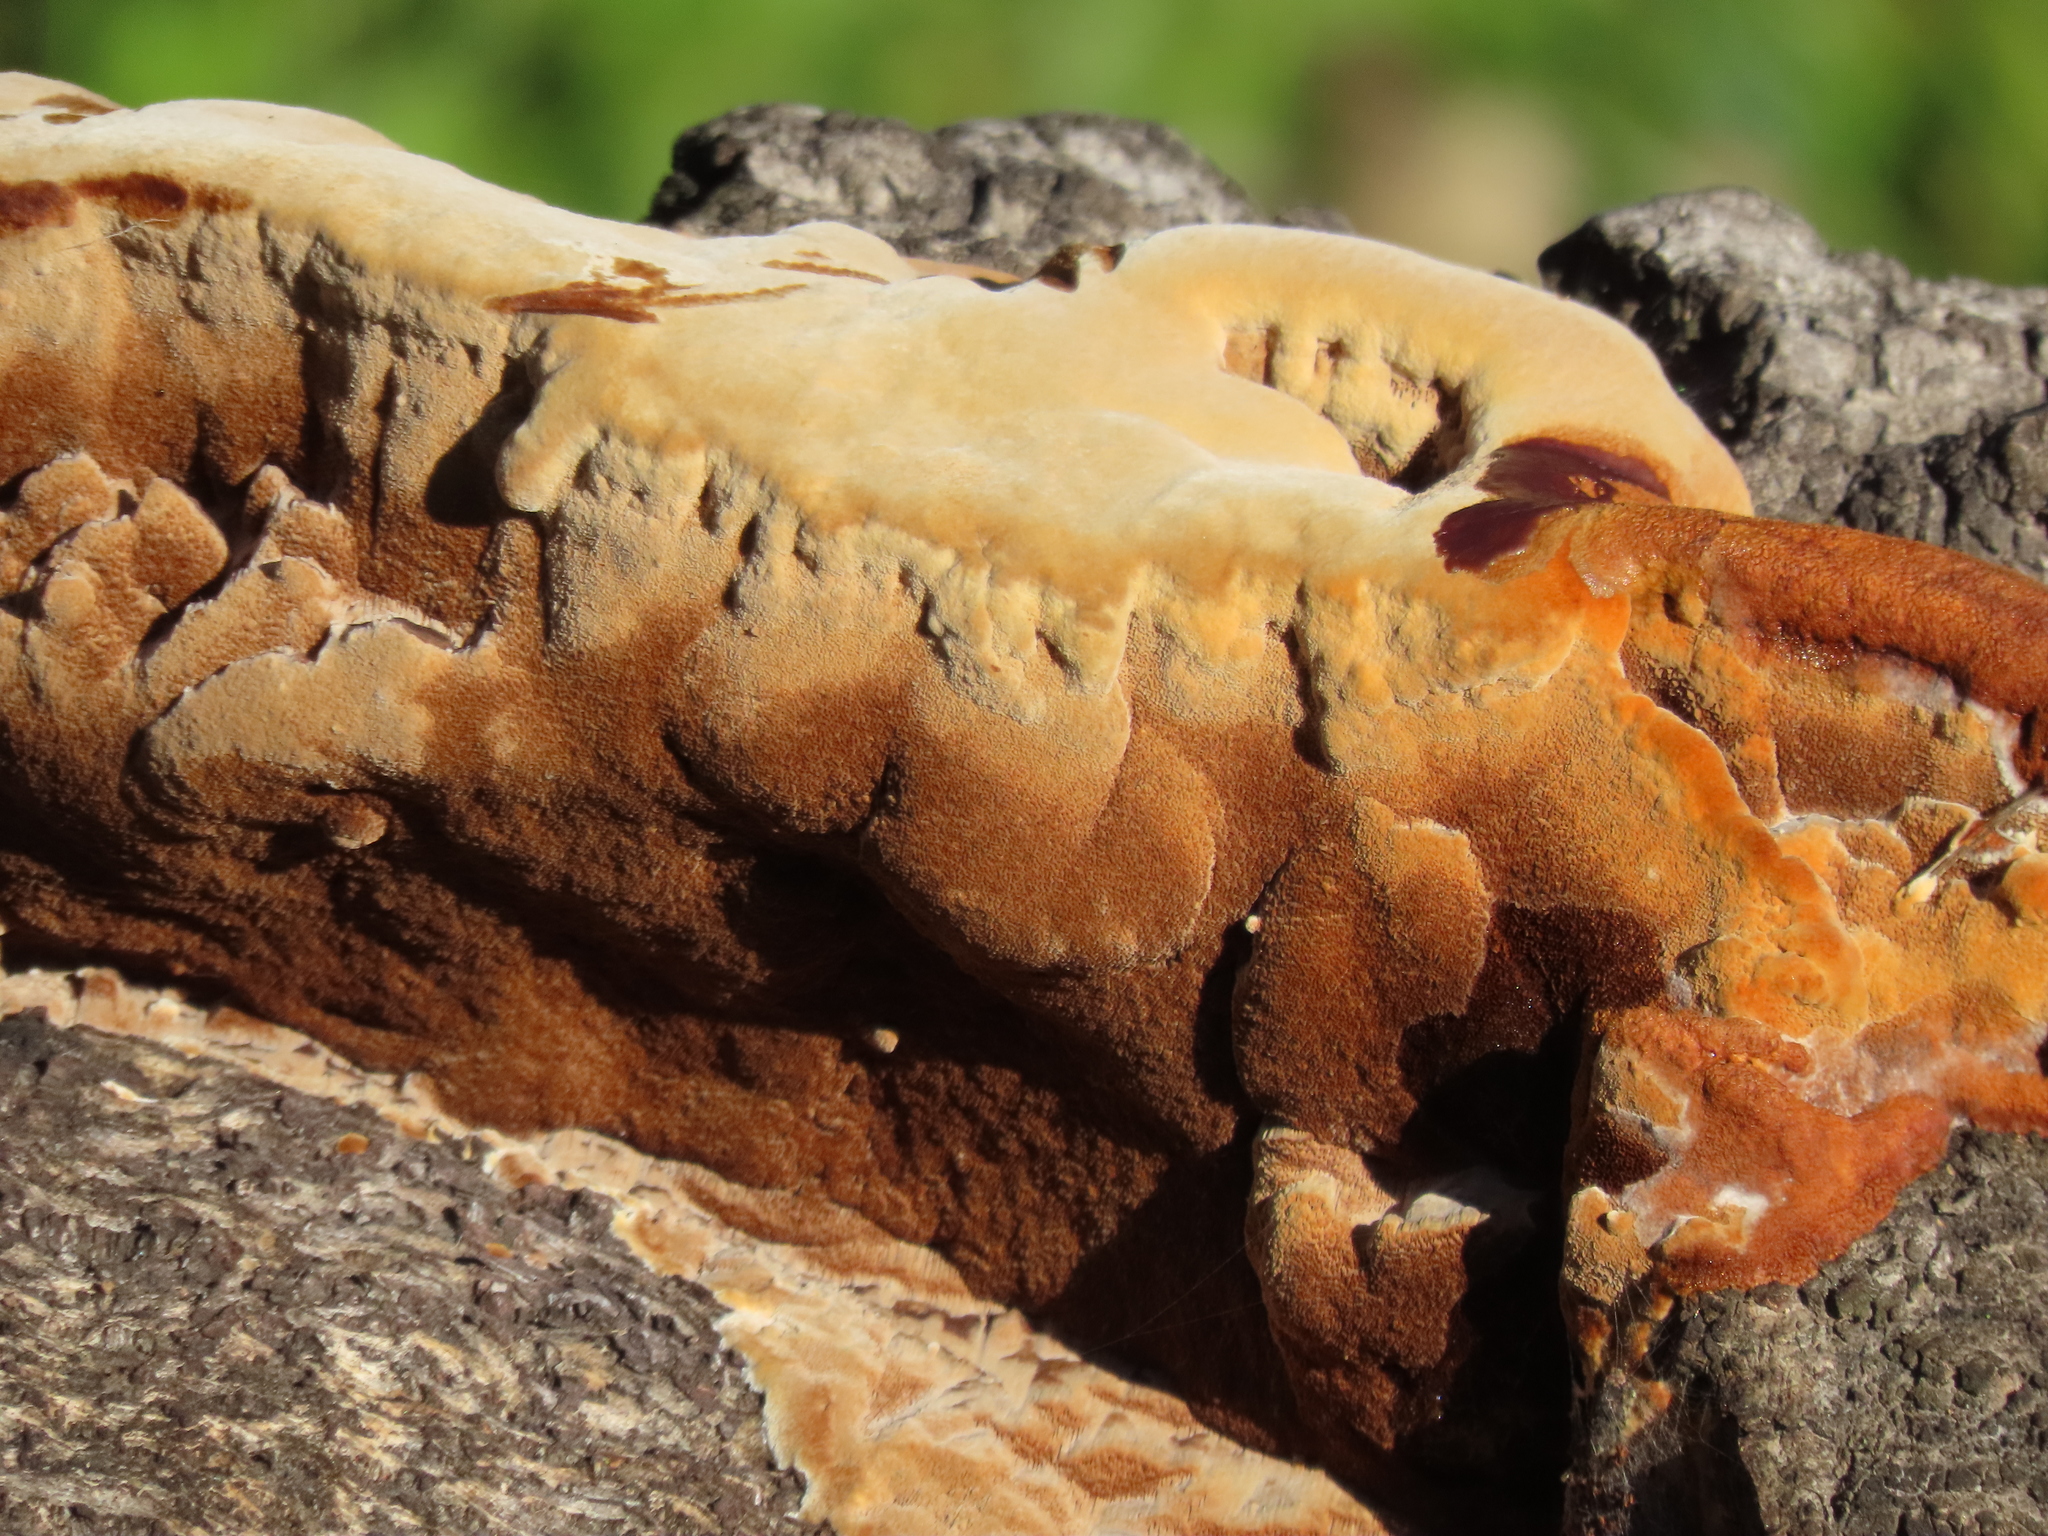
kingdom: Fungi
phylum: Basidiomycota
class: Agaricomycetes
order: Hymenochaetales
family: Hymenochaetaceae
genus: Phellinus
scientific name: Phellinus gilvus
